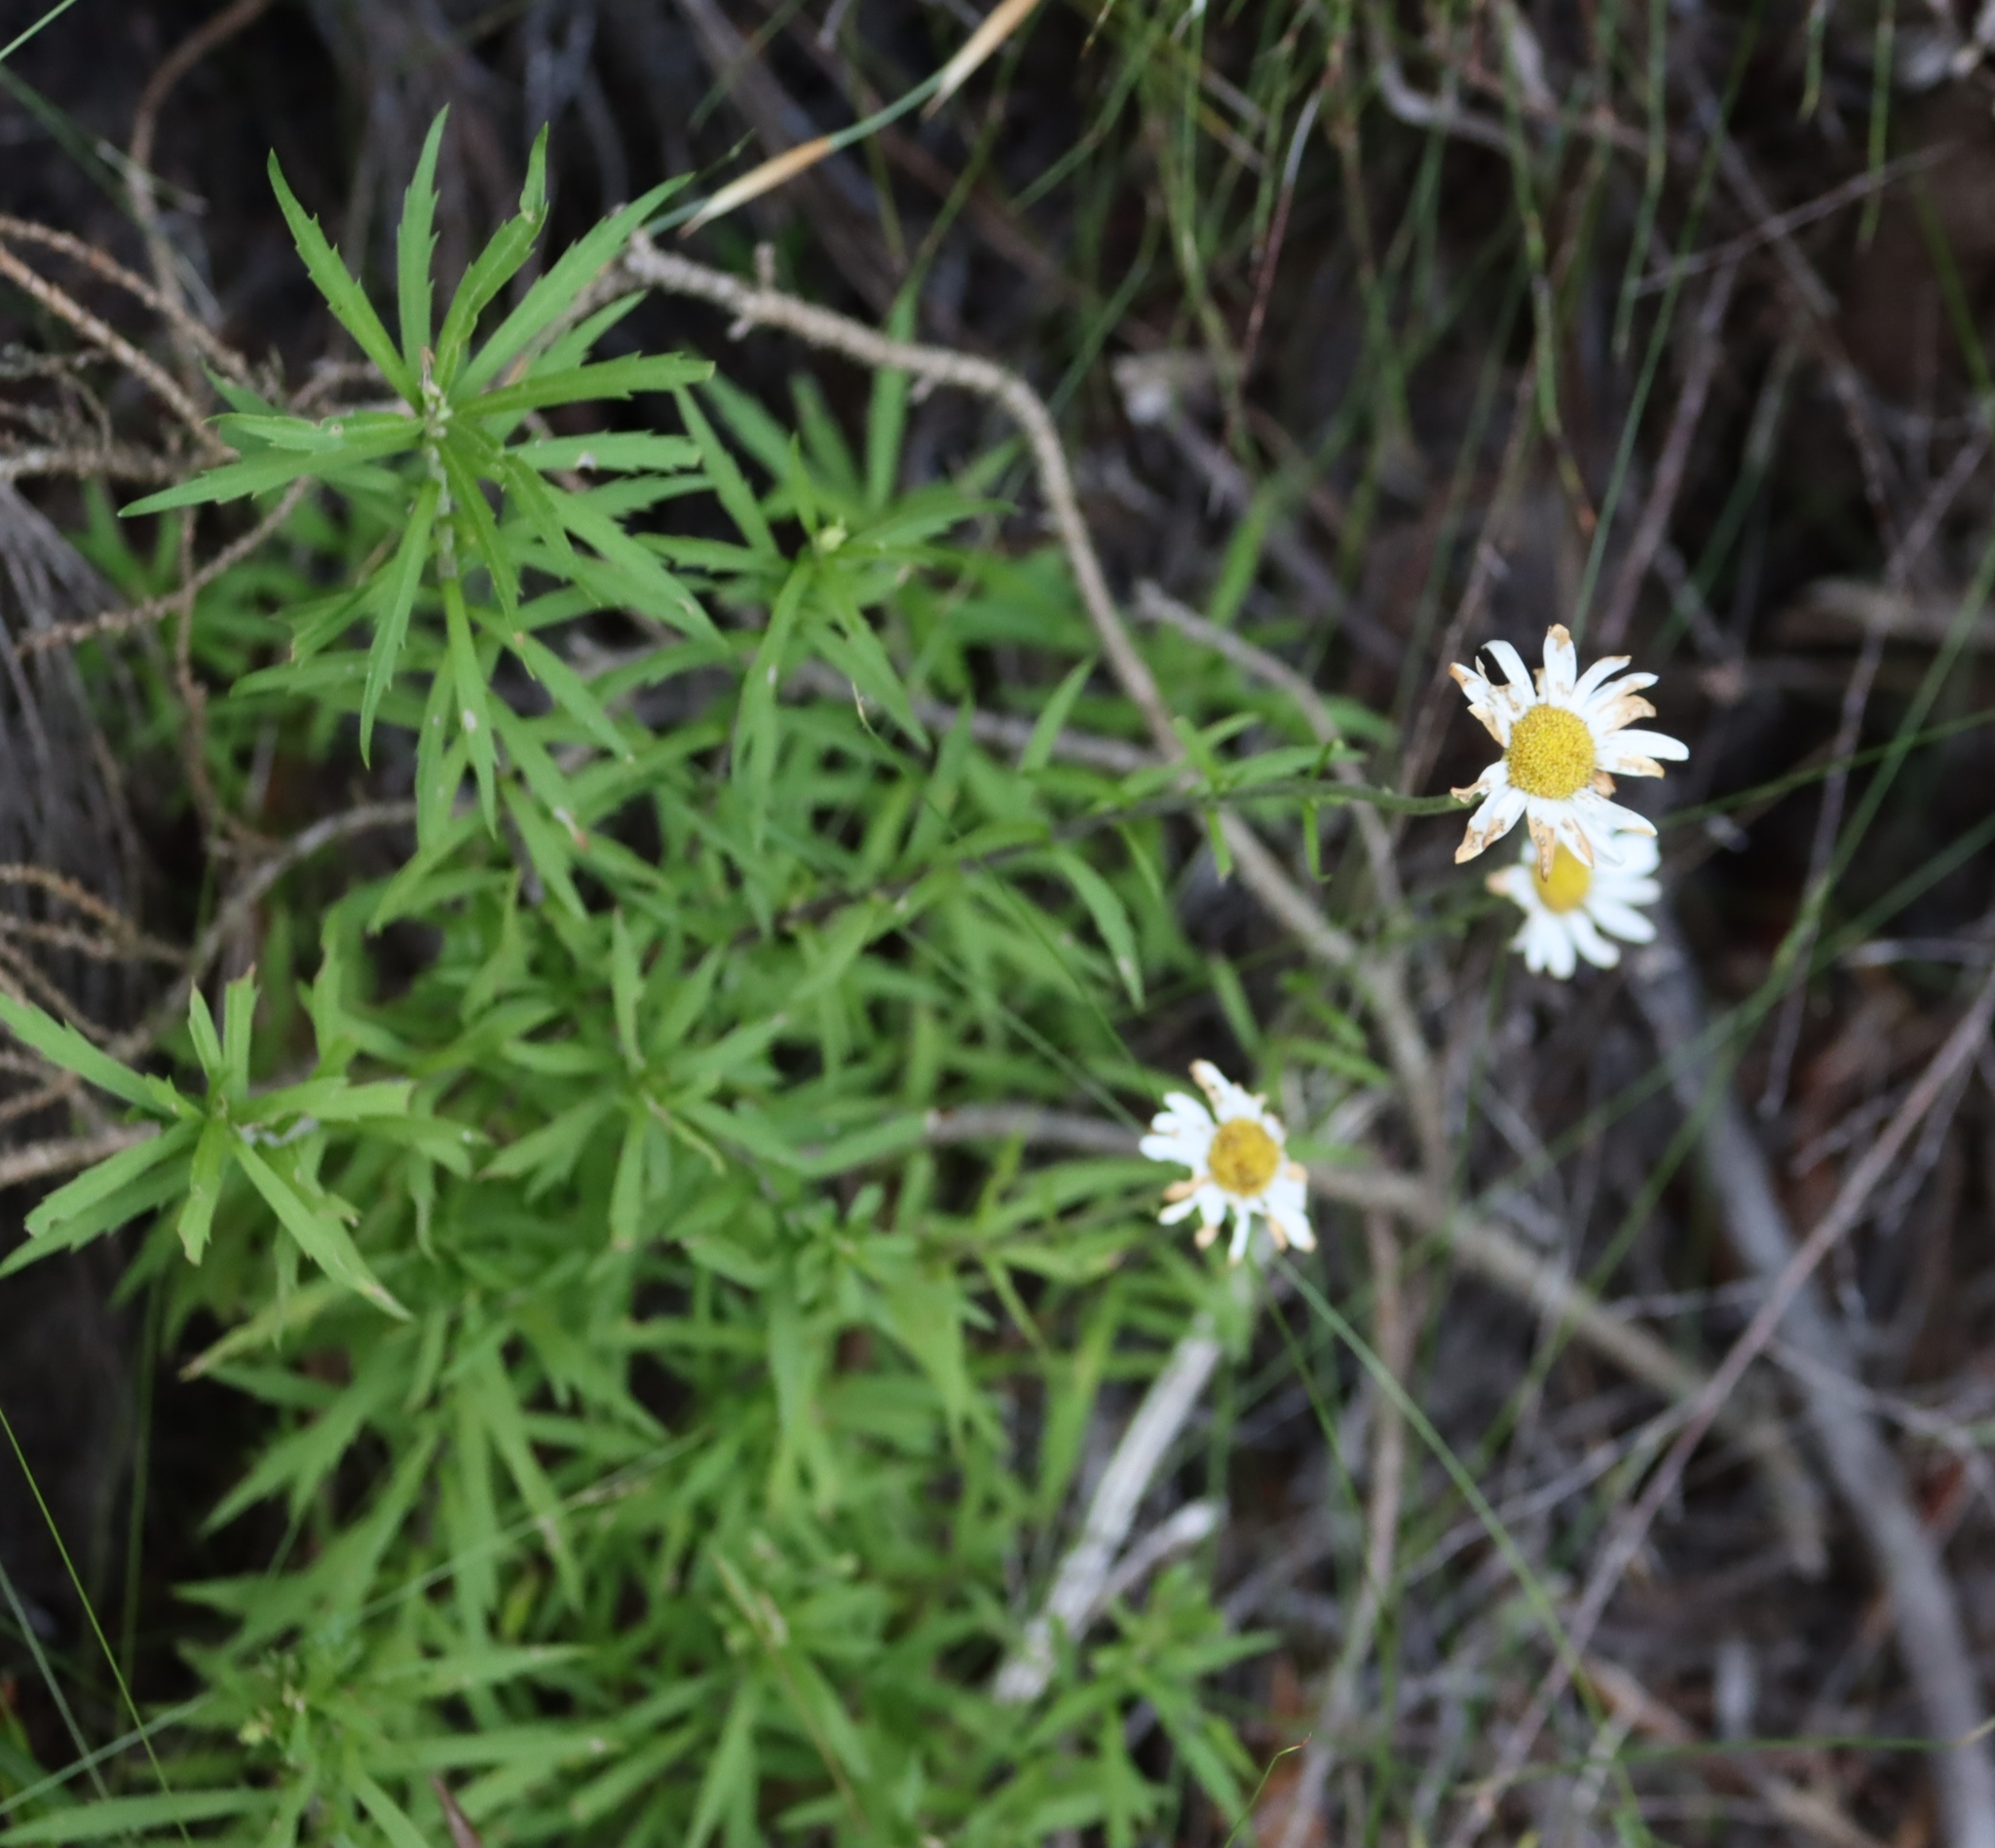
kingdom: Plantae
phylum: Tracheophyta
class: Magnoliopsida
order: Asterales
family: Asteraceae
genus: Osmitopsis
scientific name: Osmitopsis osmitoides
